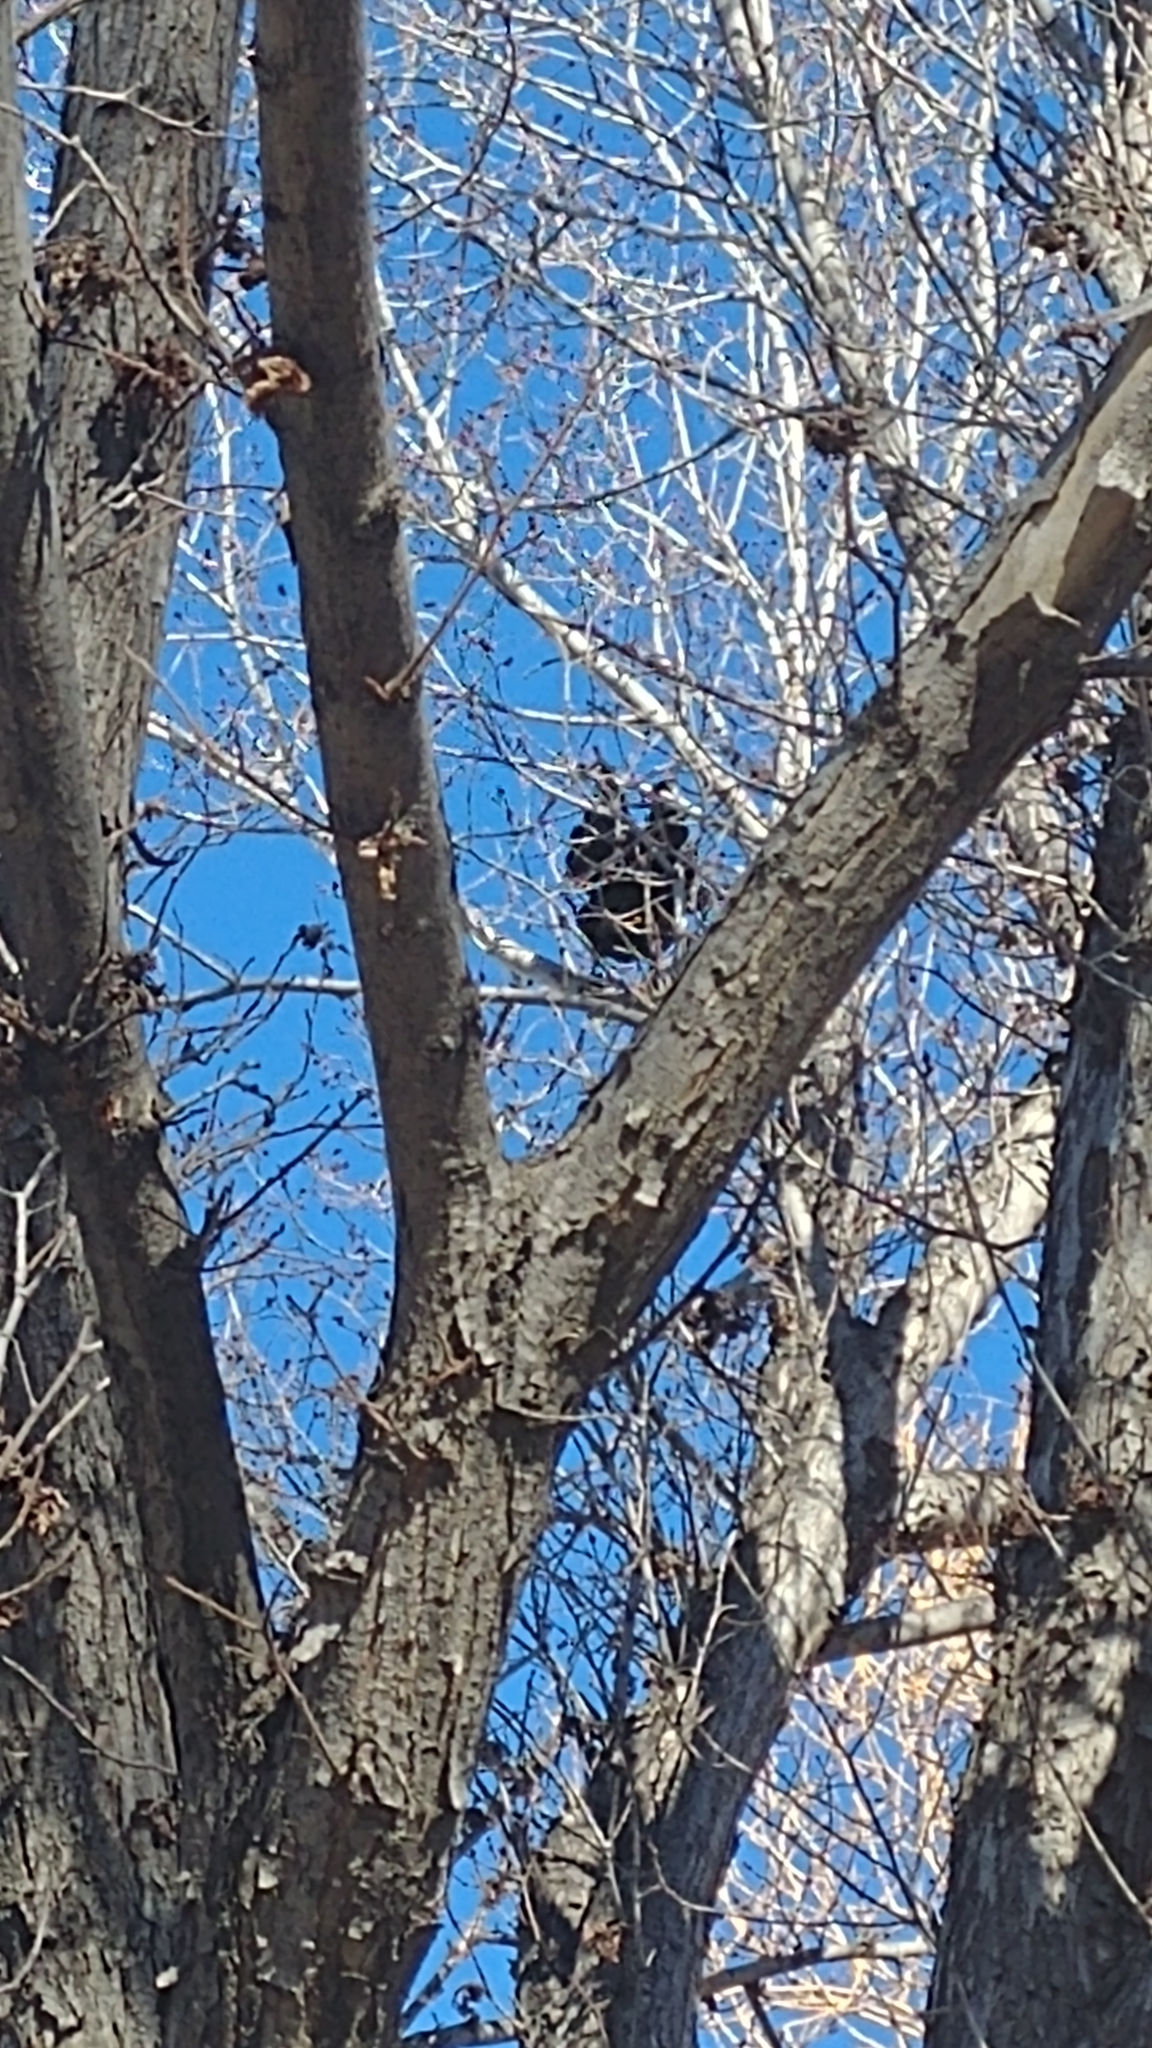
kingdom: Animalia
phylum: Chordata
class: Aves
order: Passeriformes
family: Corvidae
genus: Corvus
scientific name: Corvus brachyrhynchos
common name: American crow
